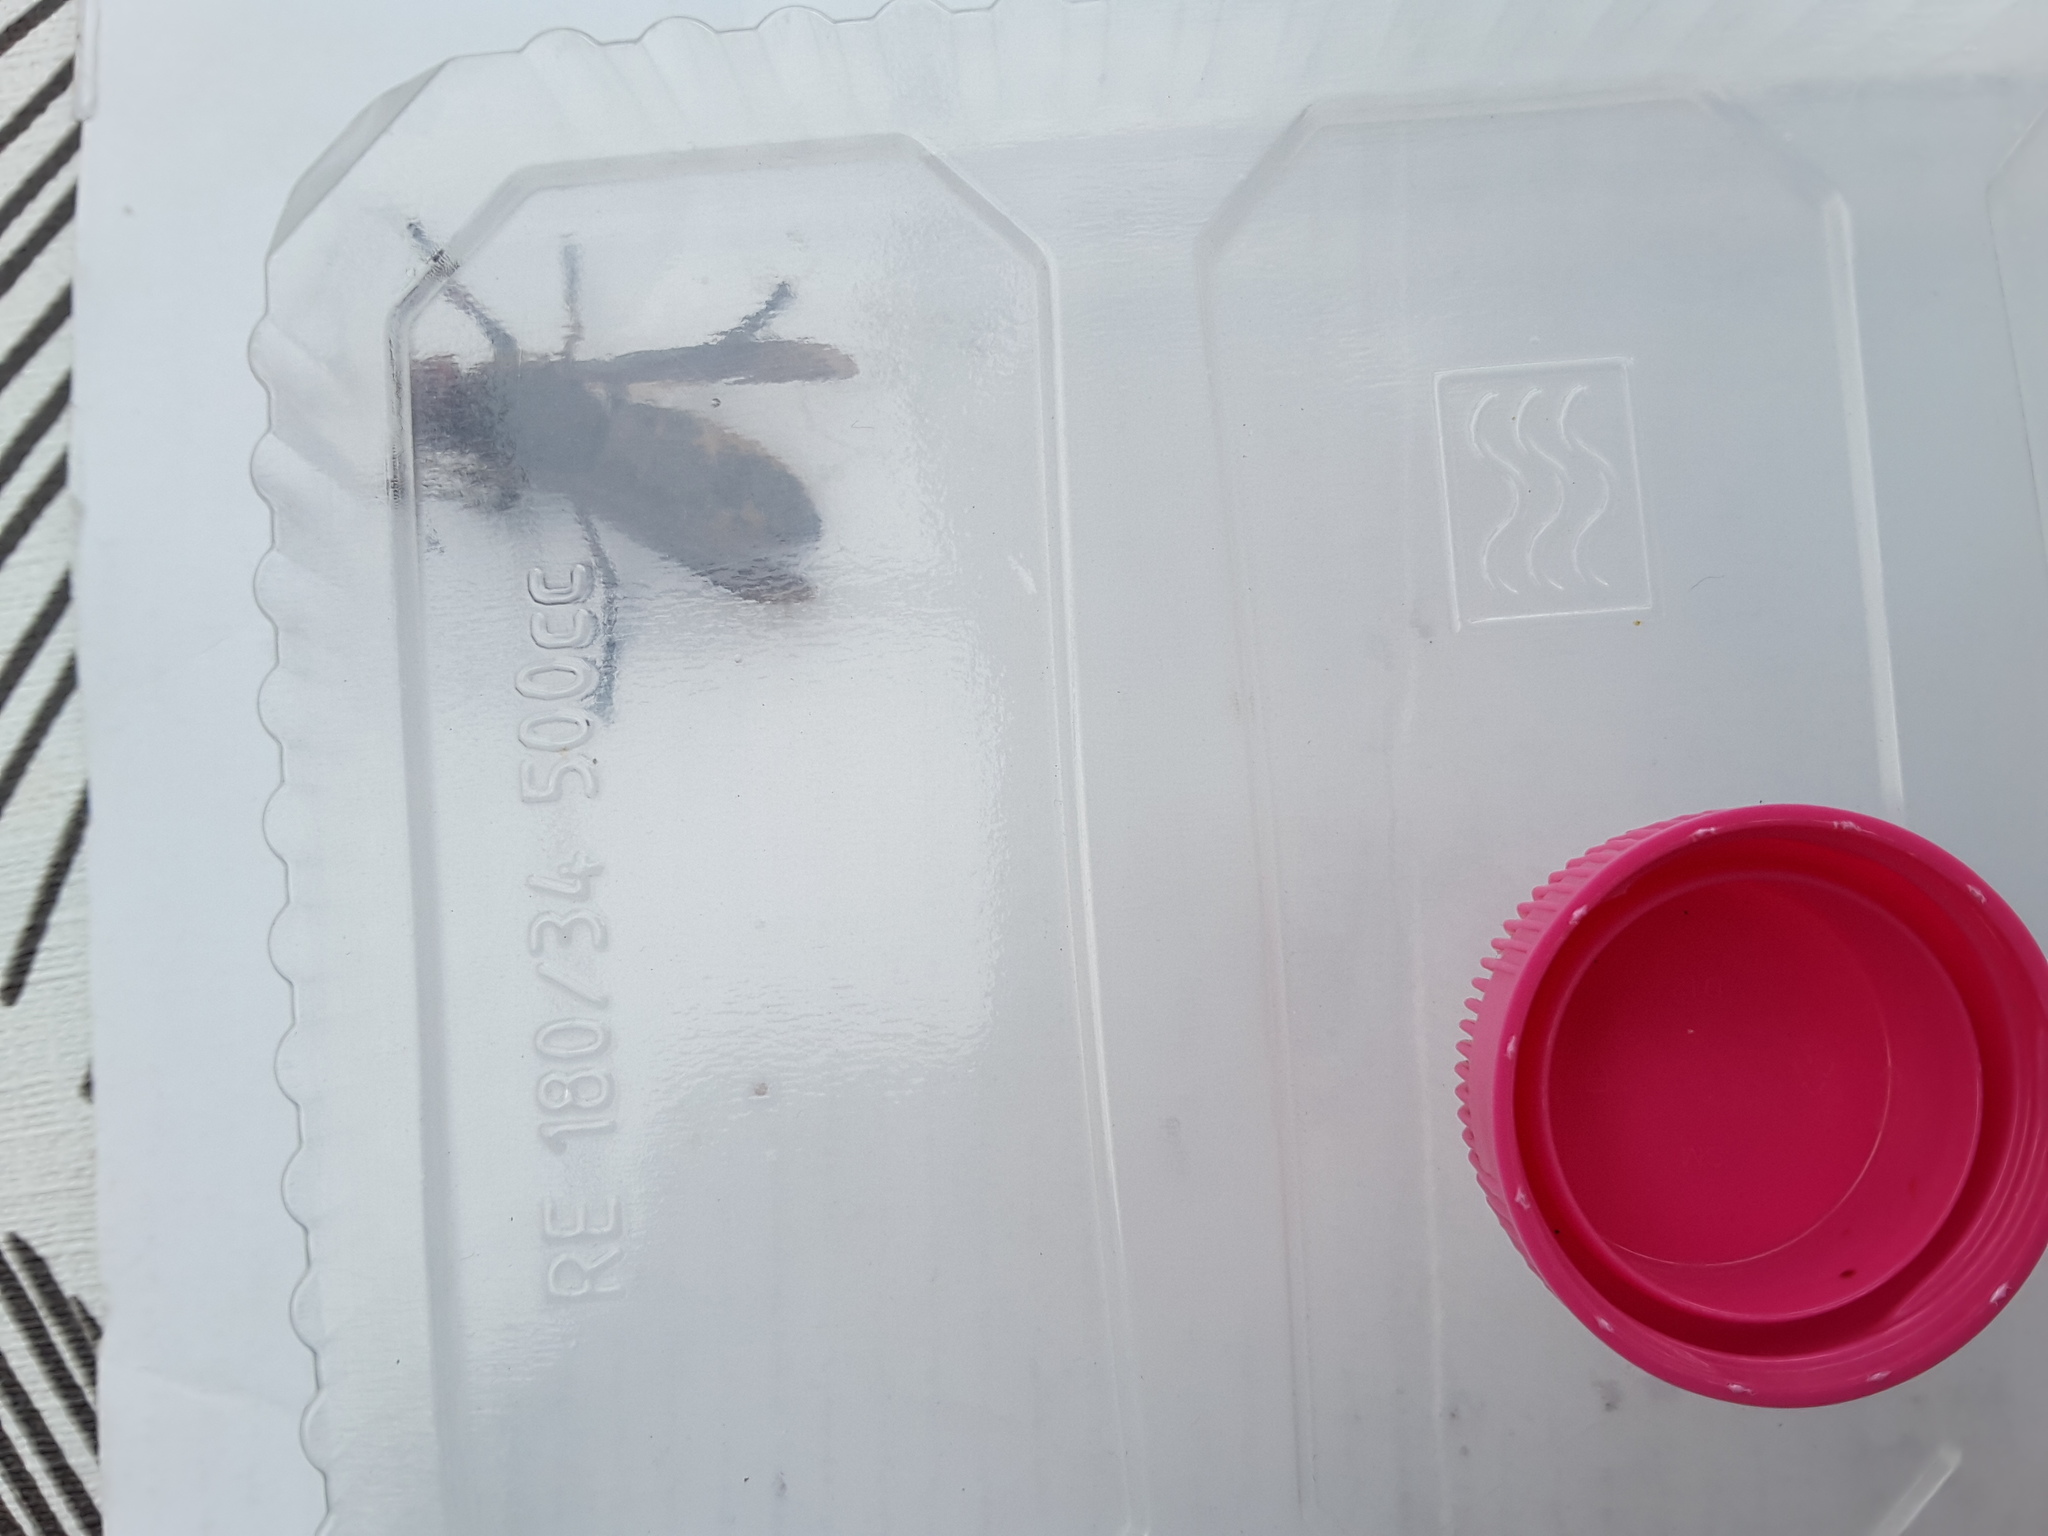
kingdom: Animalia
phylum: Arthropoda
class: Insecta
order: Hymenoptera
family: Vespidae
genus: Vespa
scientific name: Vespa crabro
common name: Hornet
